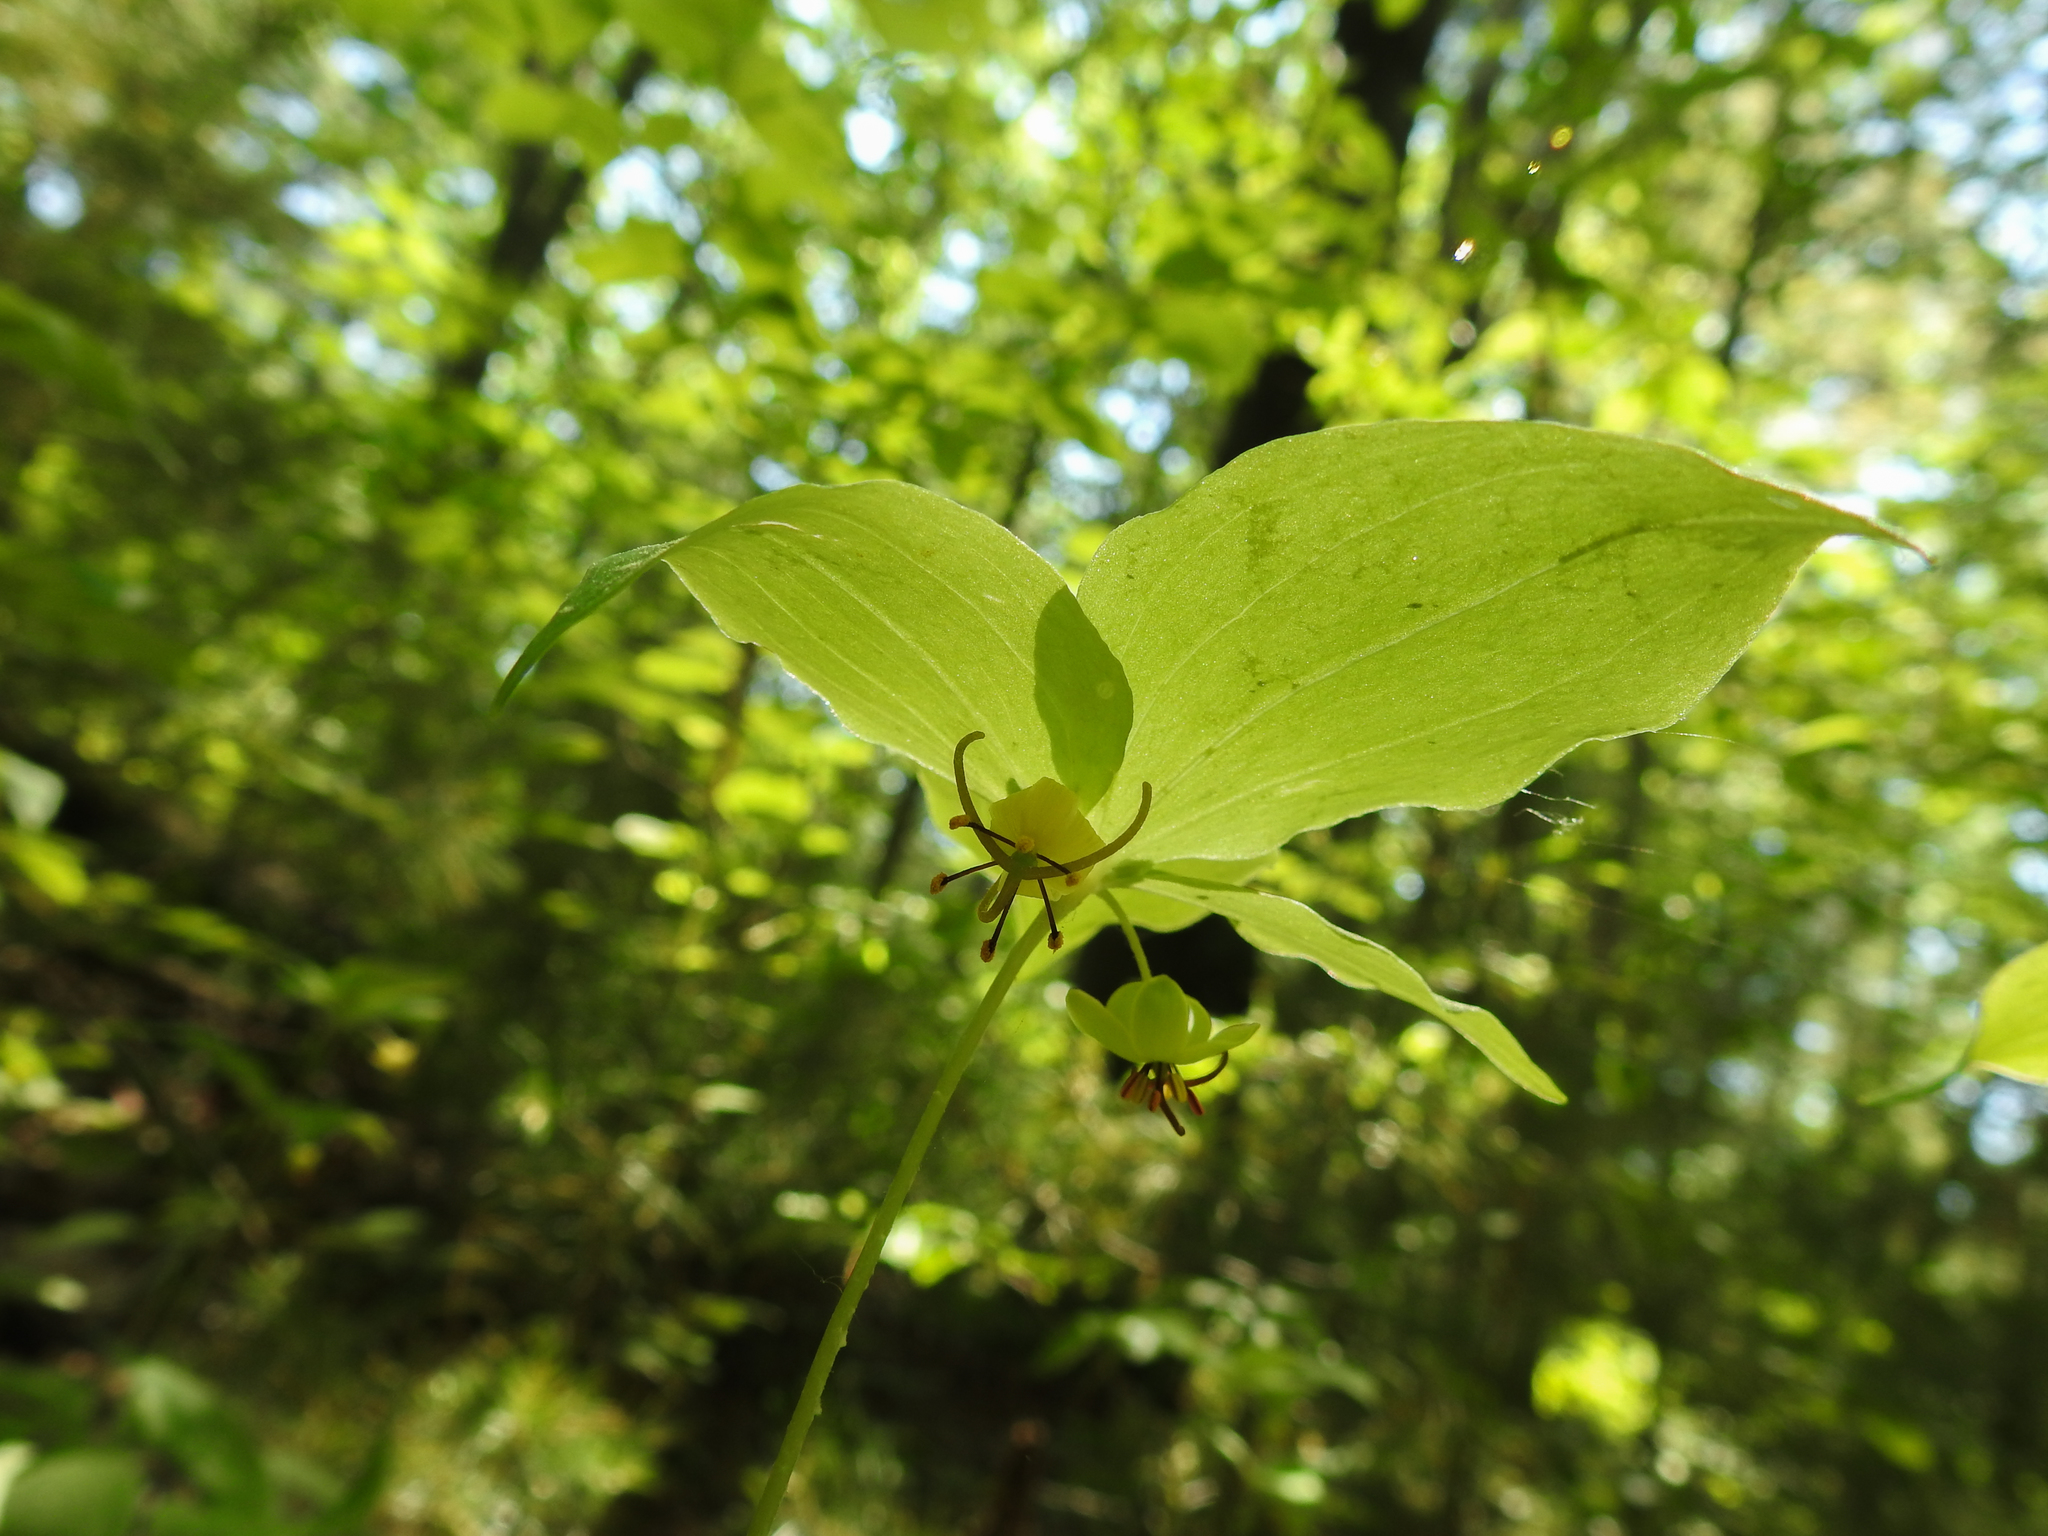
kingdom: Plantae
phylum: Tracheophyta
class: Liliopsida
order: Liliales
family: Liliaceae
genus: Medeola
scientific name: Medeola virginiana
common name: Indian cucumber-root
